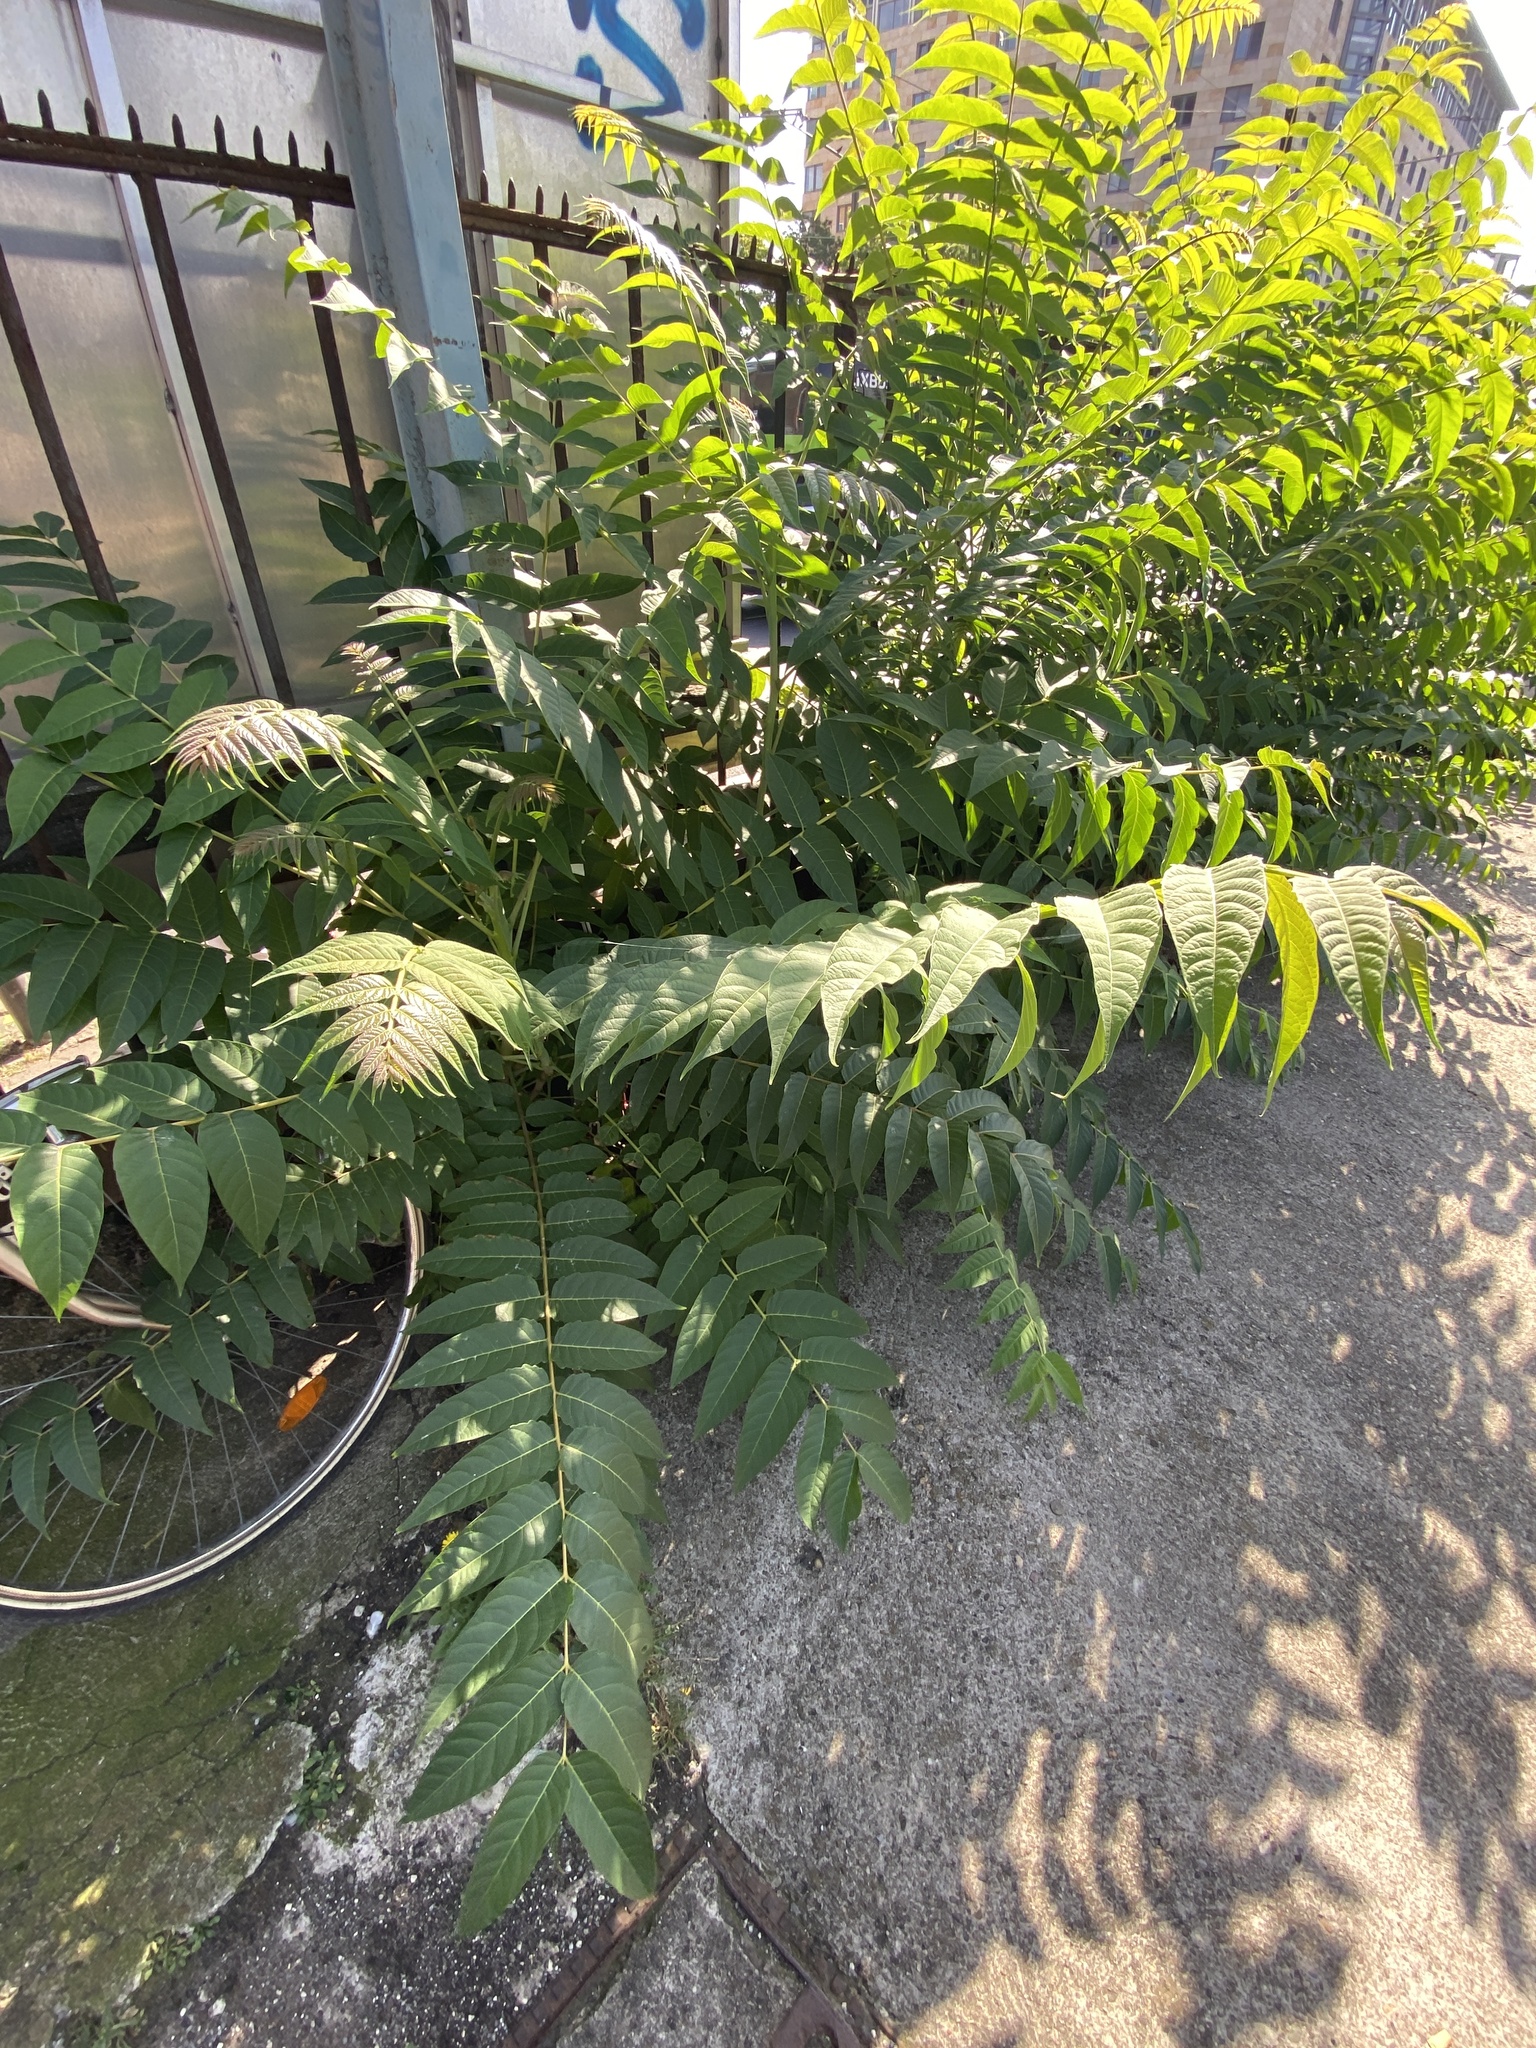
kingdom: Plantae
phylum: Tracheophyta
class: Magnoliopsida
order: Sapindales
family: Simaroubaceae
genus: Ailanthus
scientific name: Ailanthus altissima
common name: Tree-of-heaven
